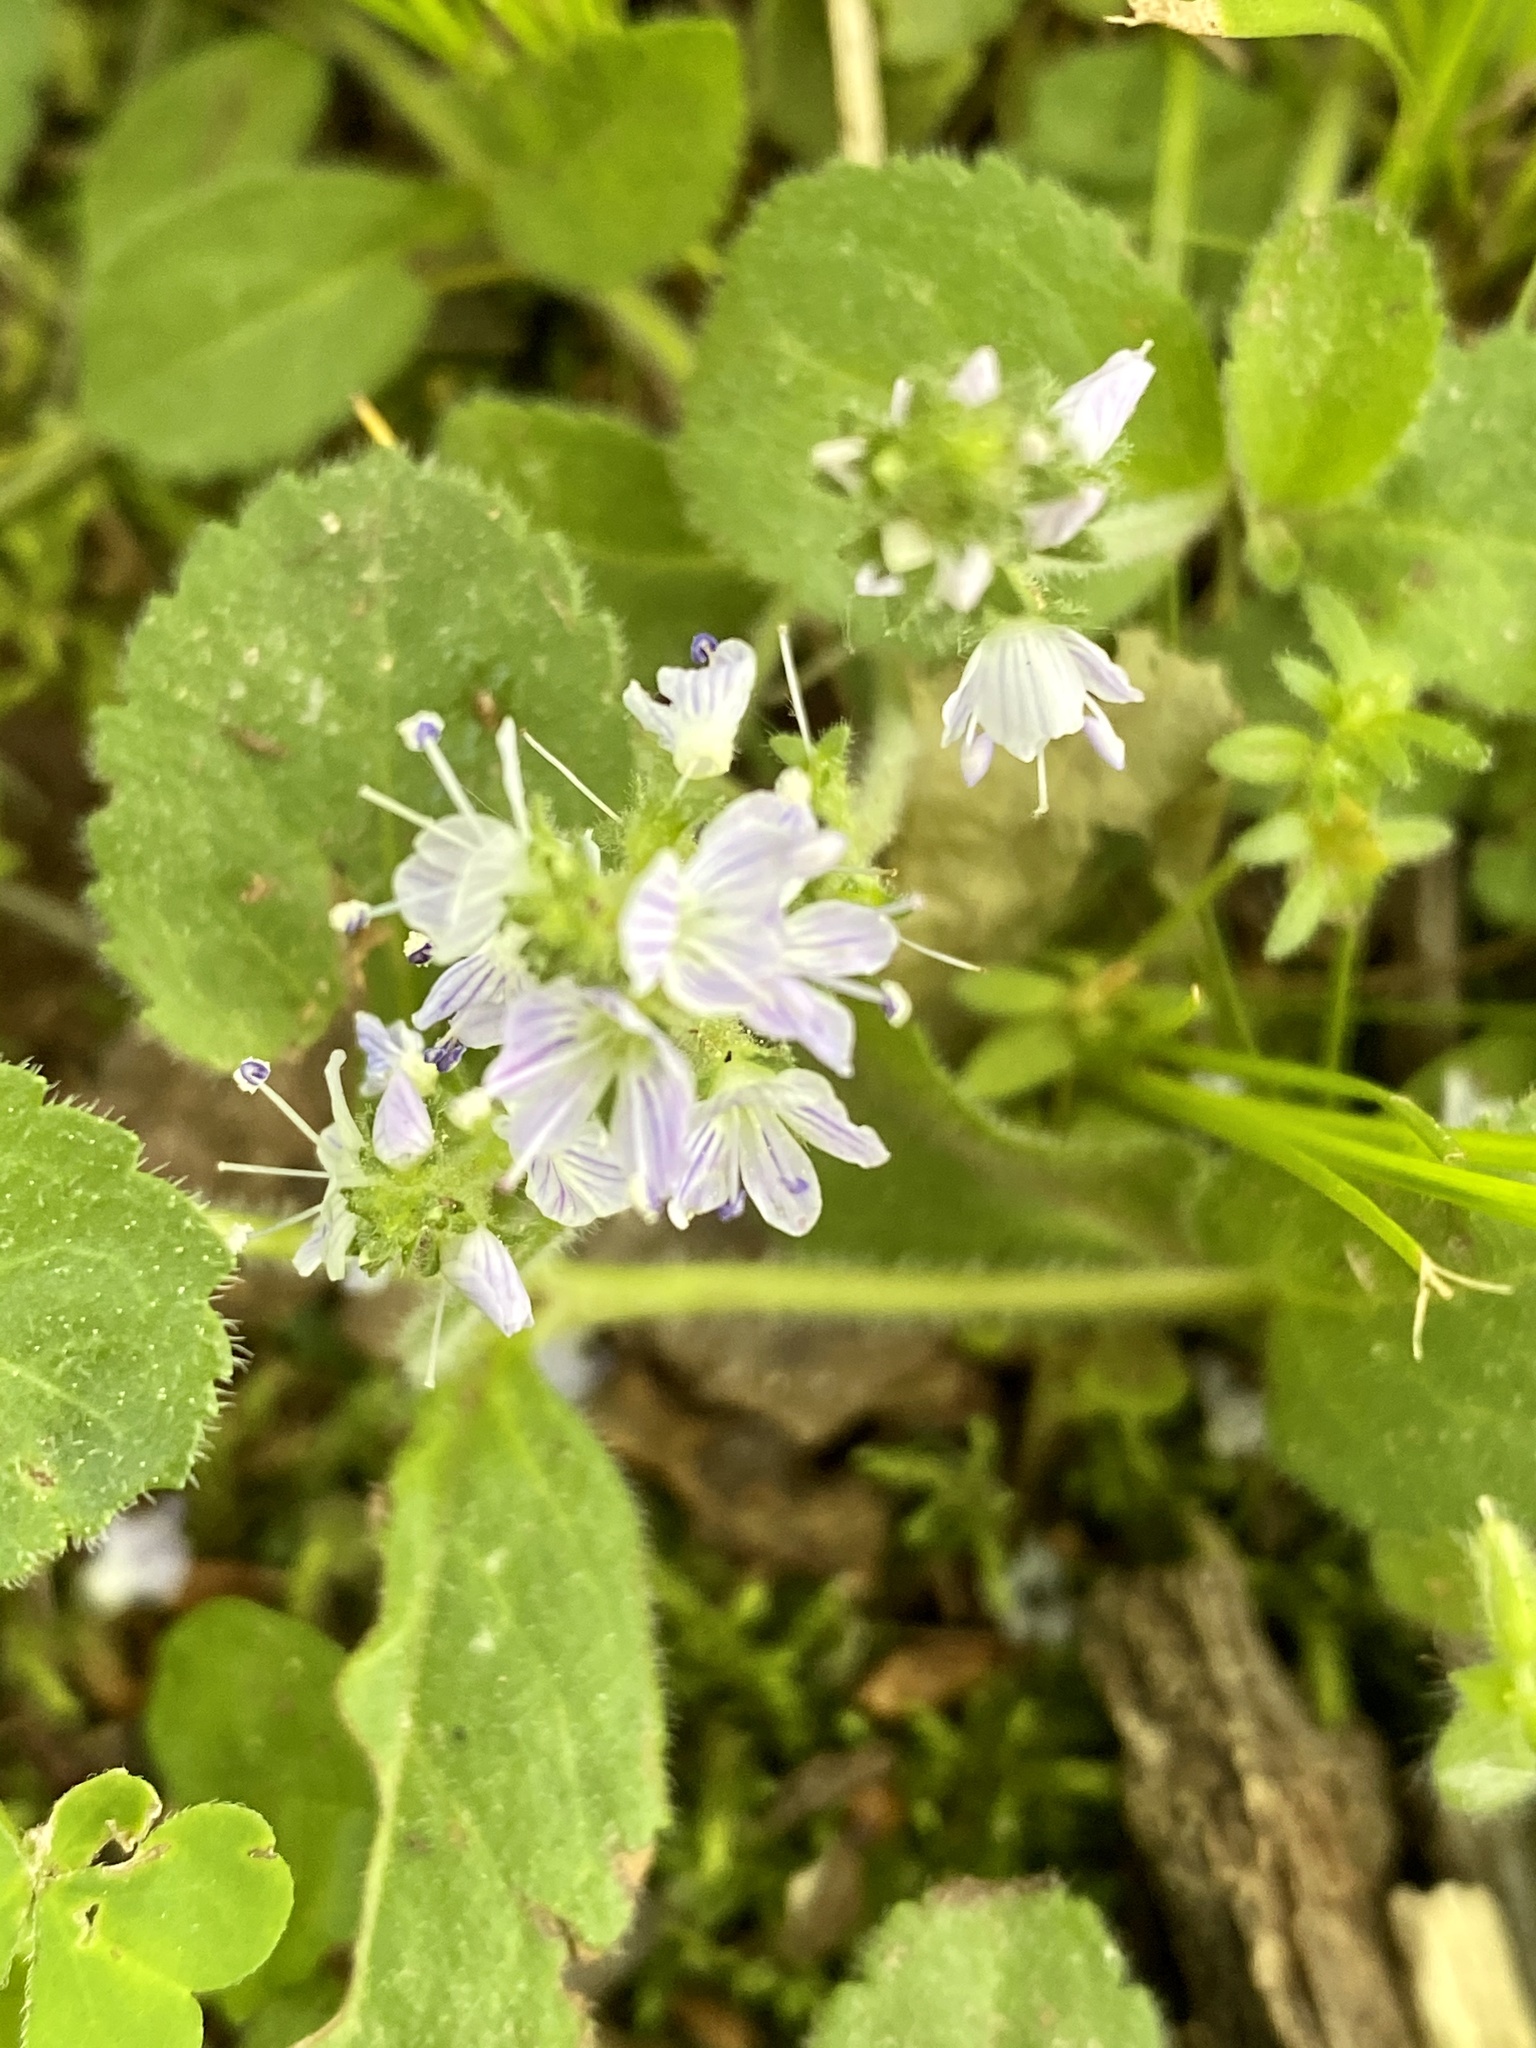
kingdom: Plantae
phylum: Tracheophyta
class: Magnoliopsida
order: Lamiales
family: Plantaginaceae
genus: Veronica
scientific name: Veronica officinalis
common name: Common speedwell
